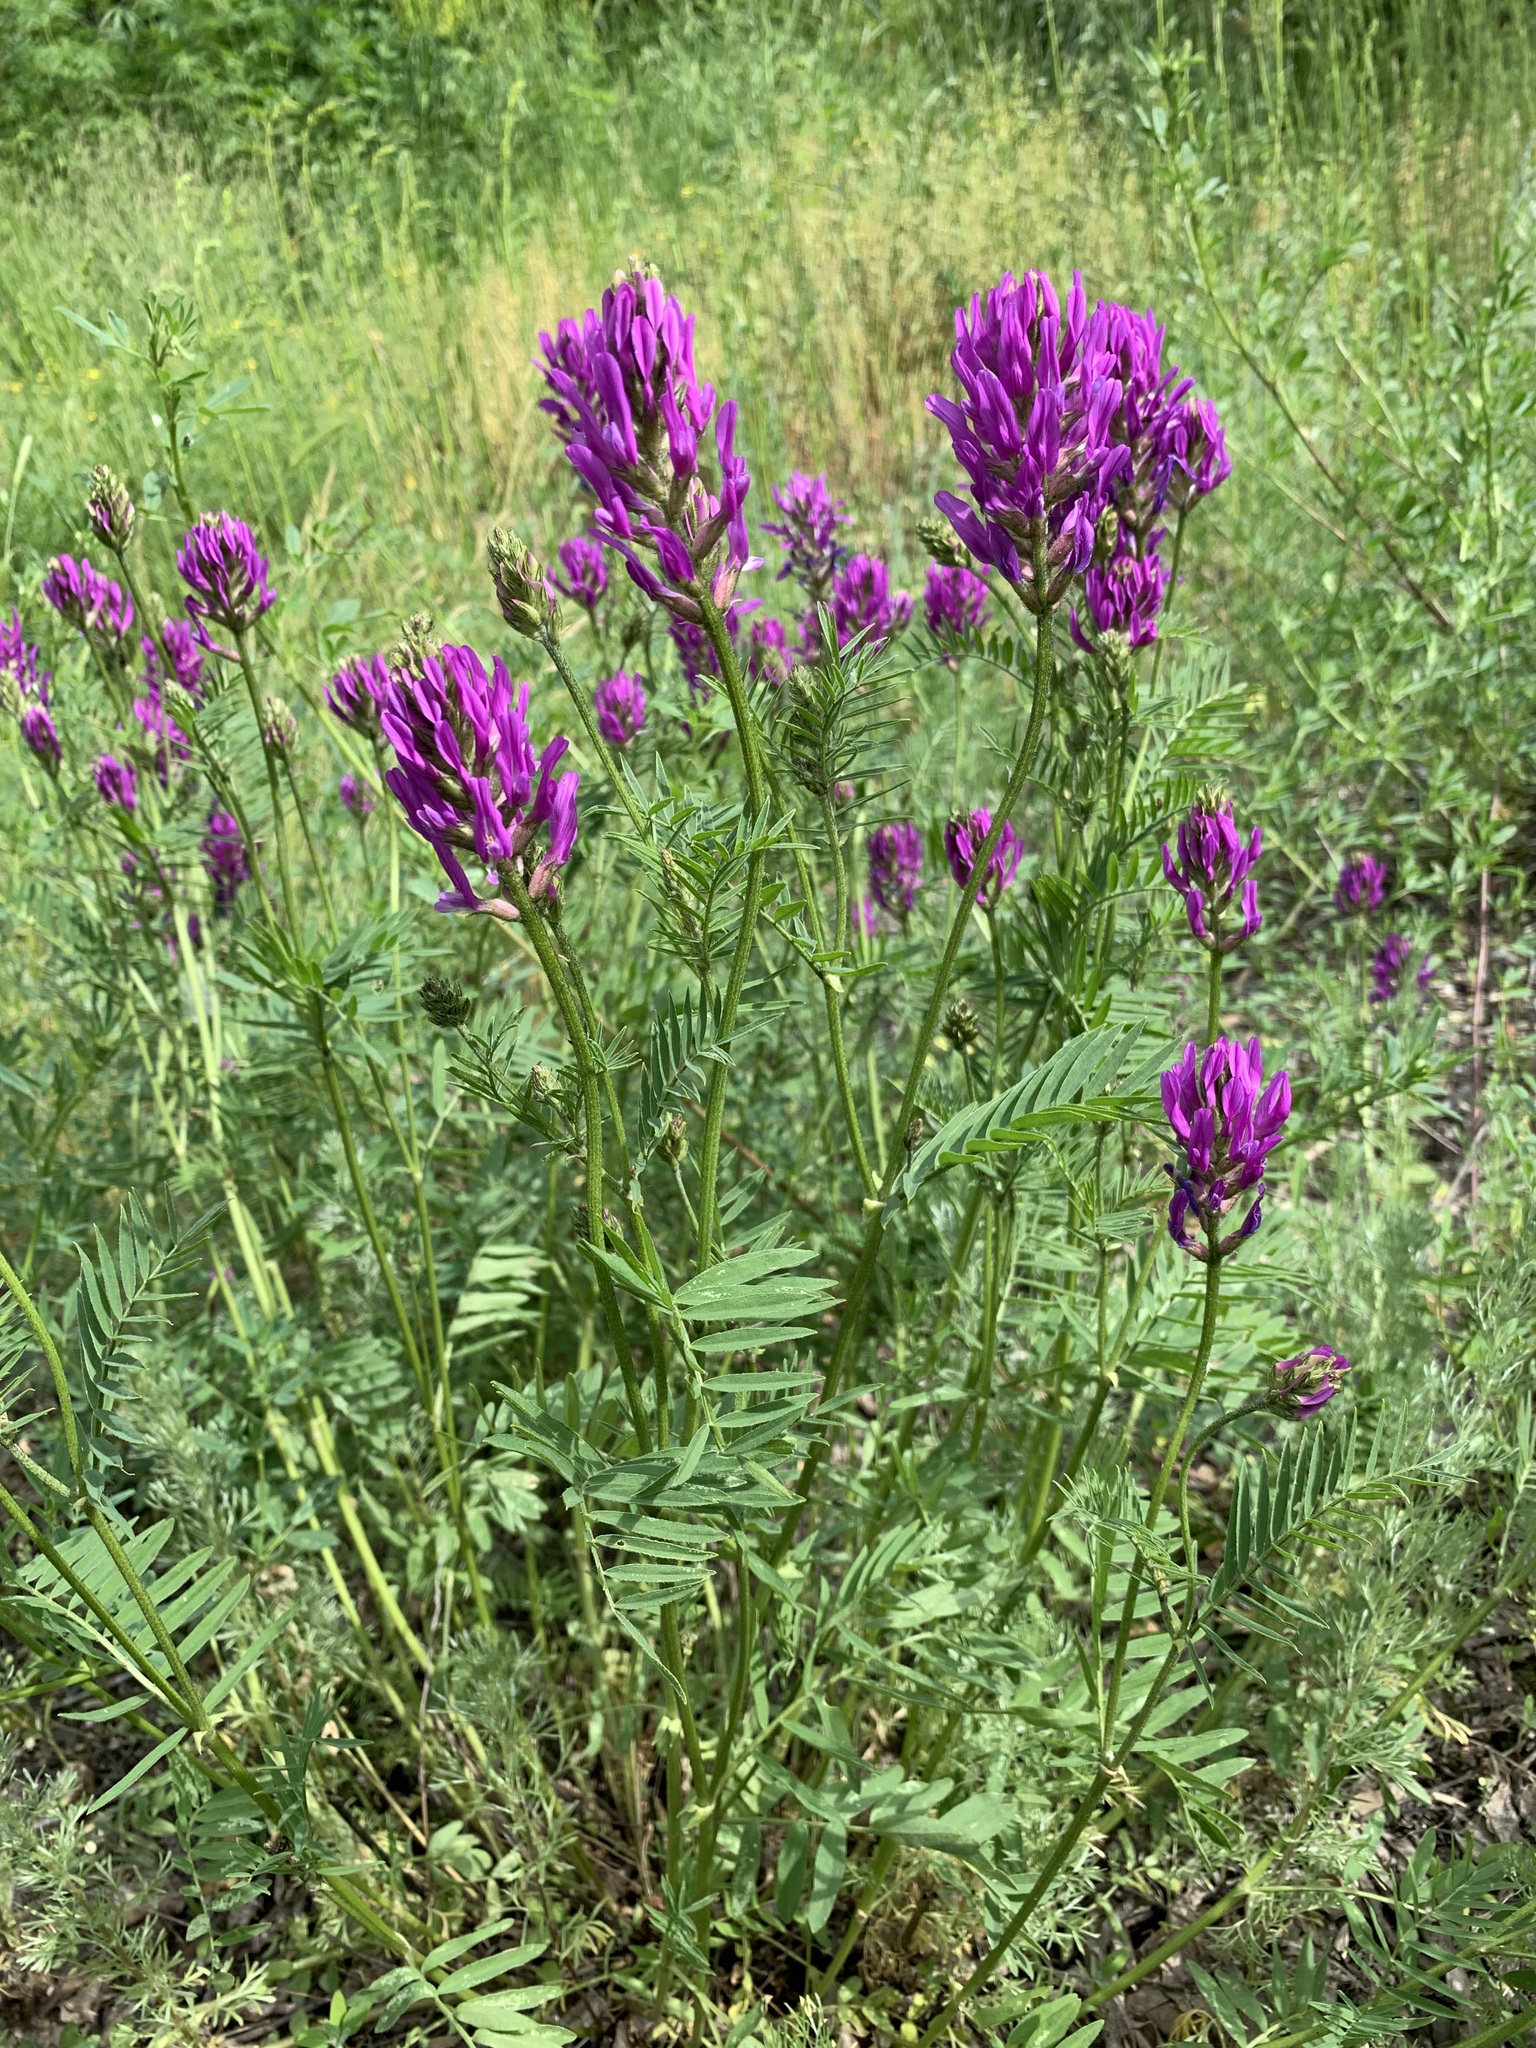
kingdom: Plantae
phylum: Tracheophyta
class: Magnoliopsida
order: Fabales
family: Fabaceae
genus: Astragalus
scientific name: Astragalus onobrychis
